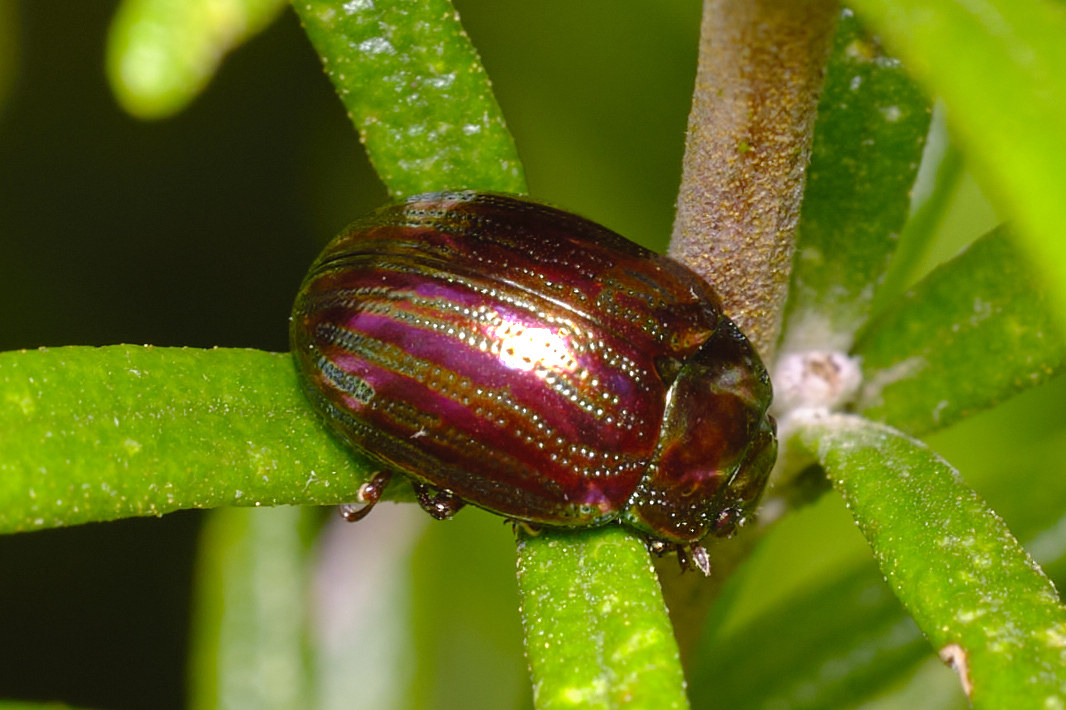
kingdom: Animalia
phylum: Arthropoda
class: Insecta
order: Coleoptera
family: Chrysomelidae
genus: Chrysolina
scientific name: Chrysolina americana
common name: Rosemary beetle
